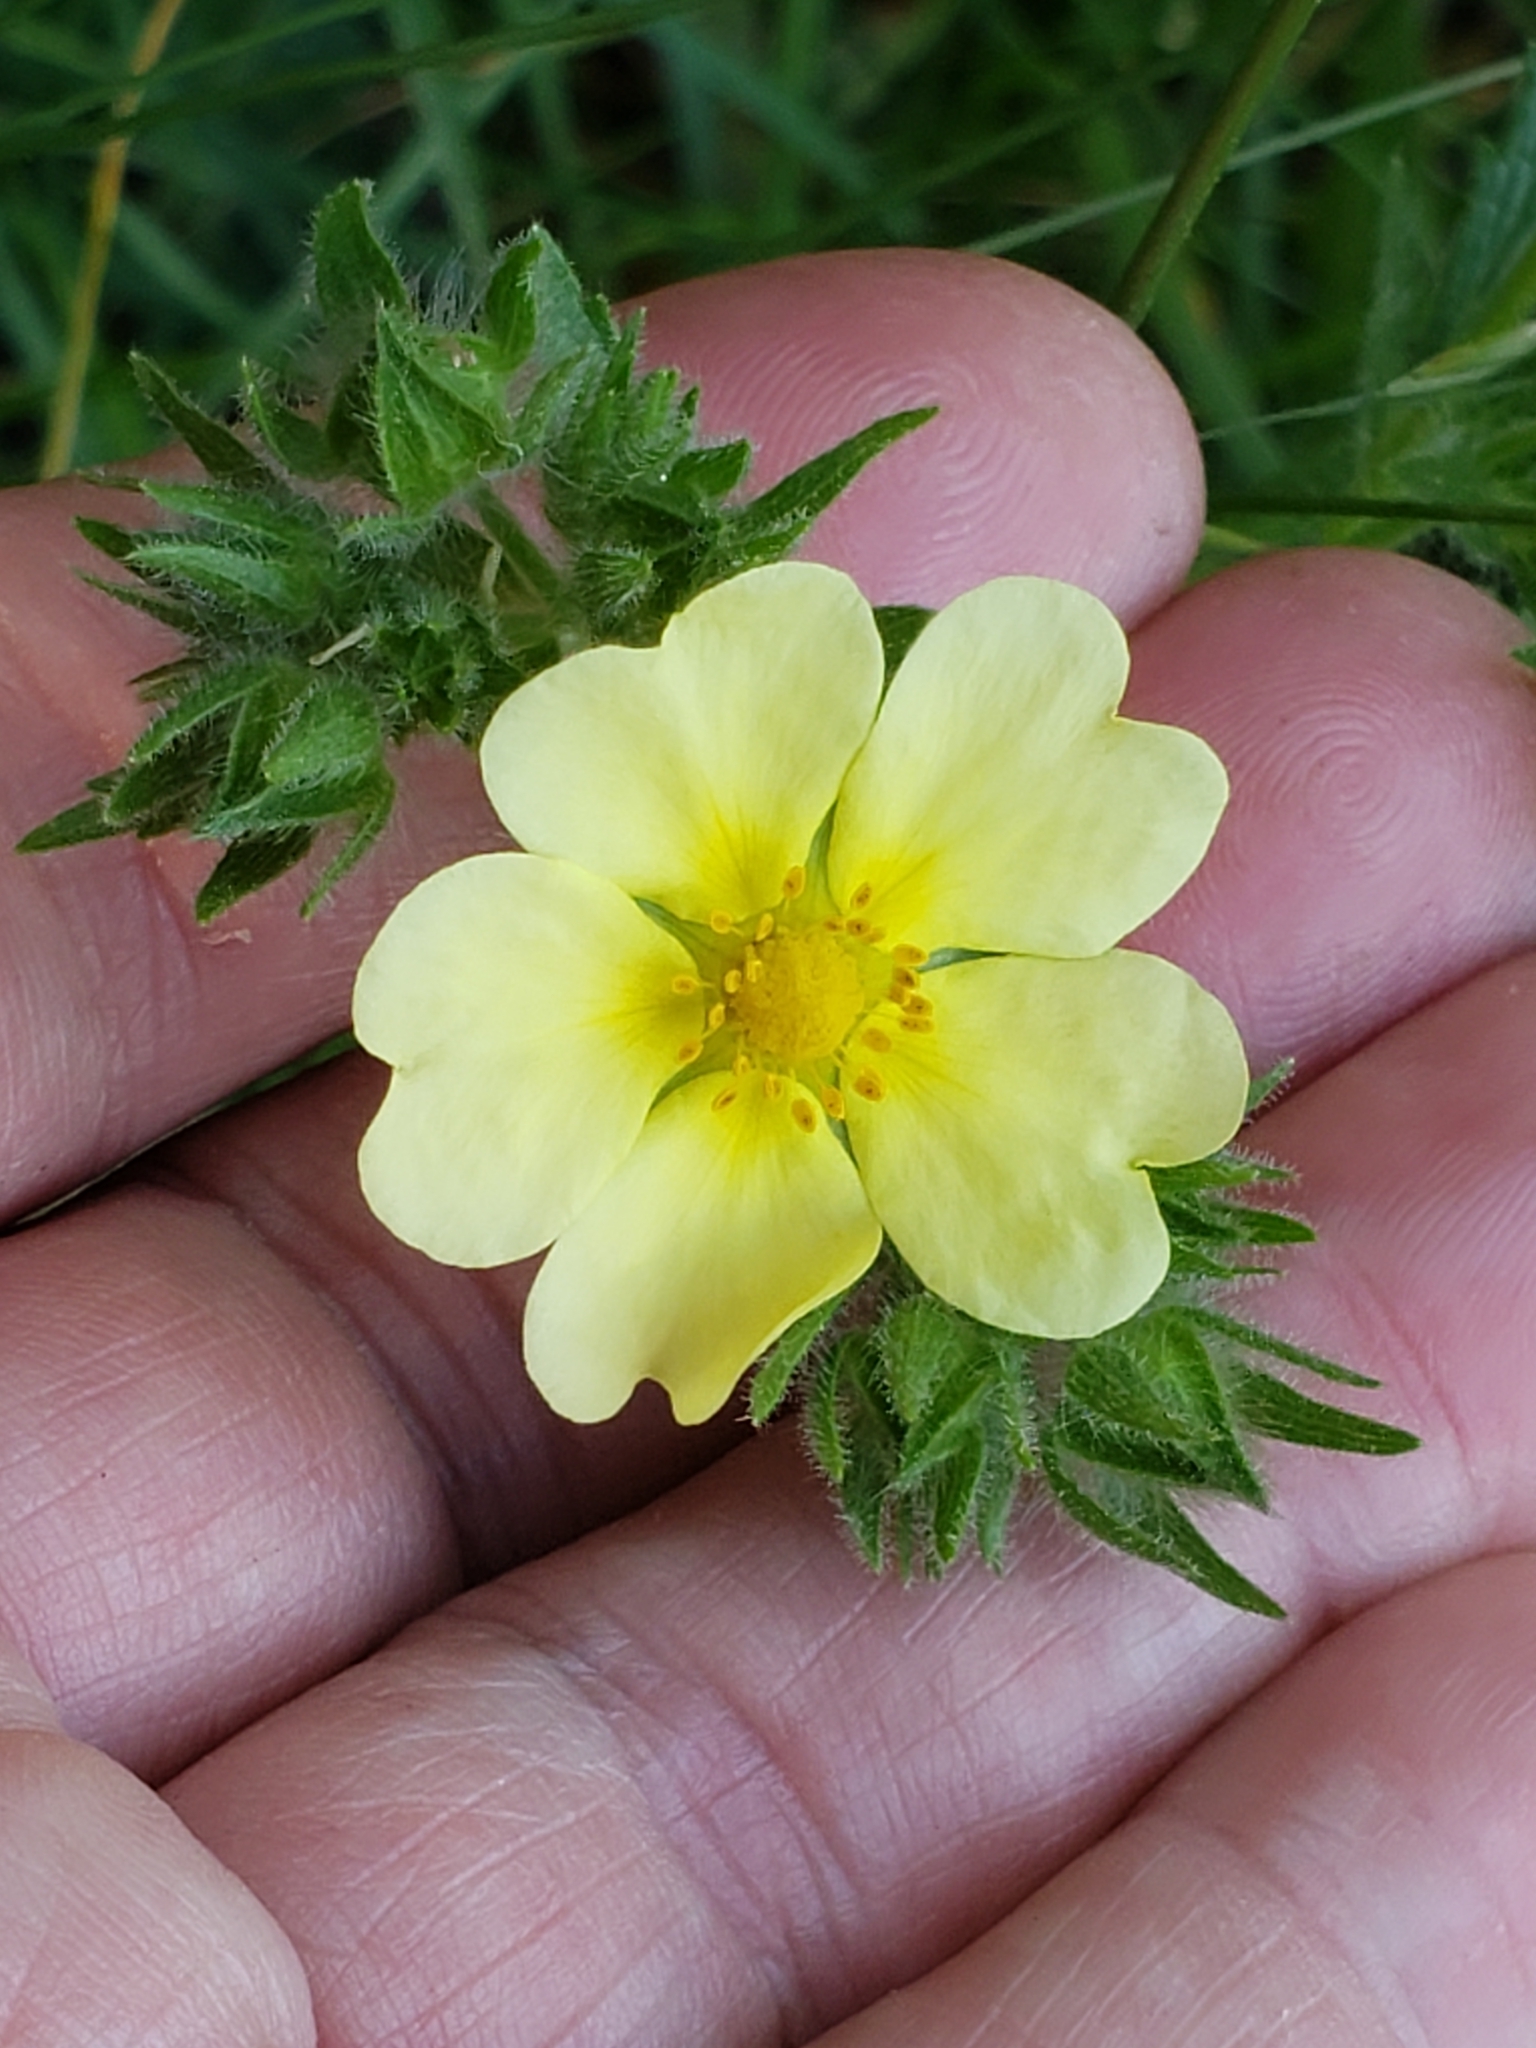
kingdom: Plantae
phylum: Tracheophyta
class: Magnoliopsida
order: Rosales
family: Rosaceae
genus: Potentilla
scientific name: Potentilla recta
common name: Sulphur cinquefoil
